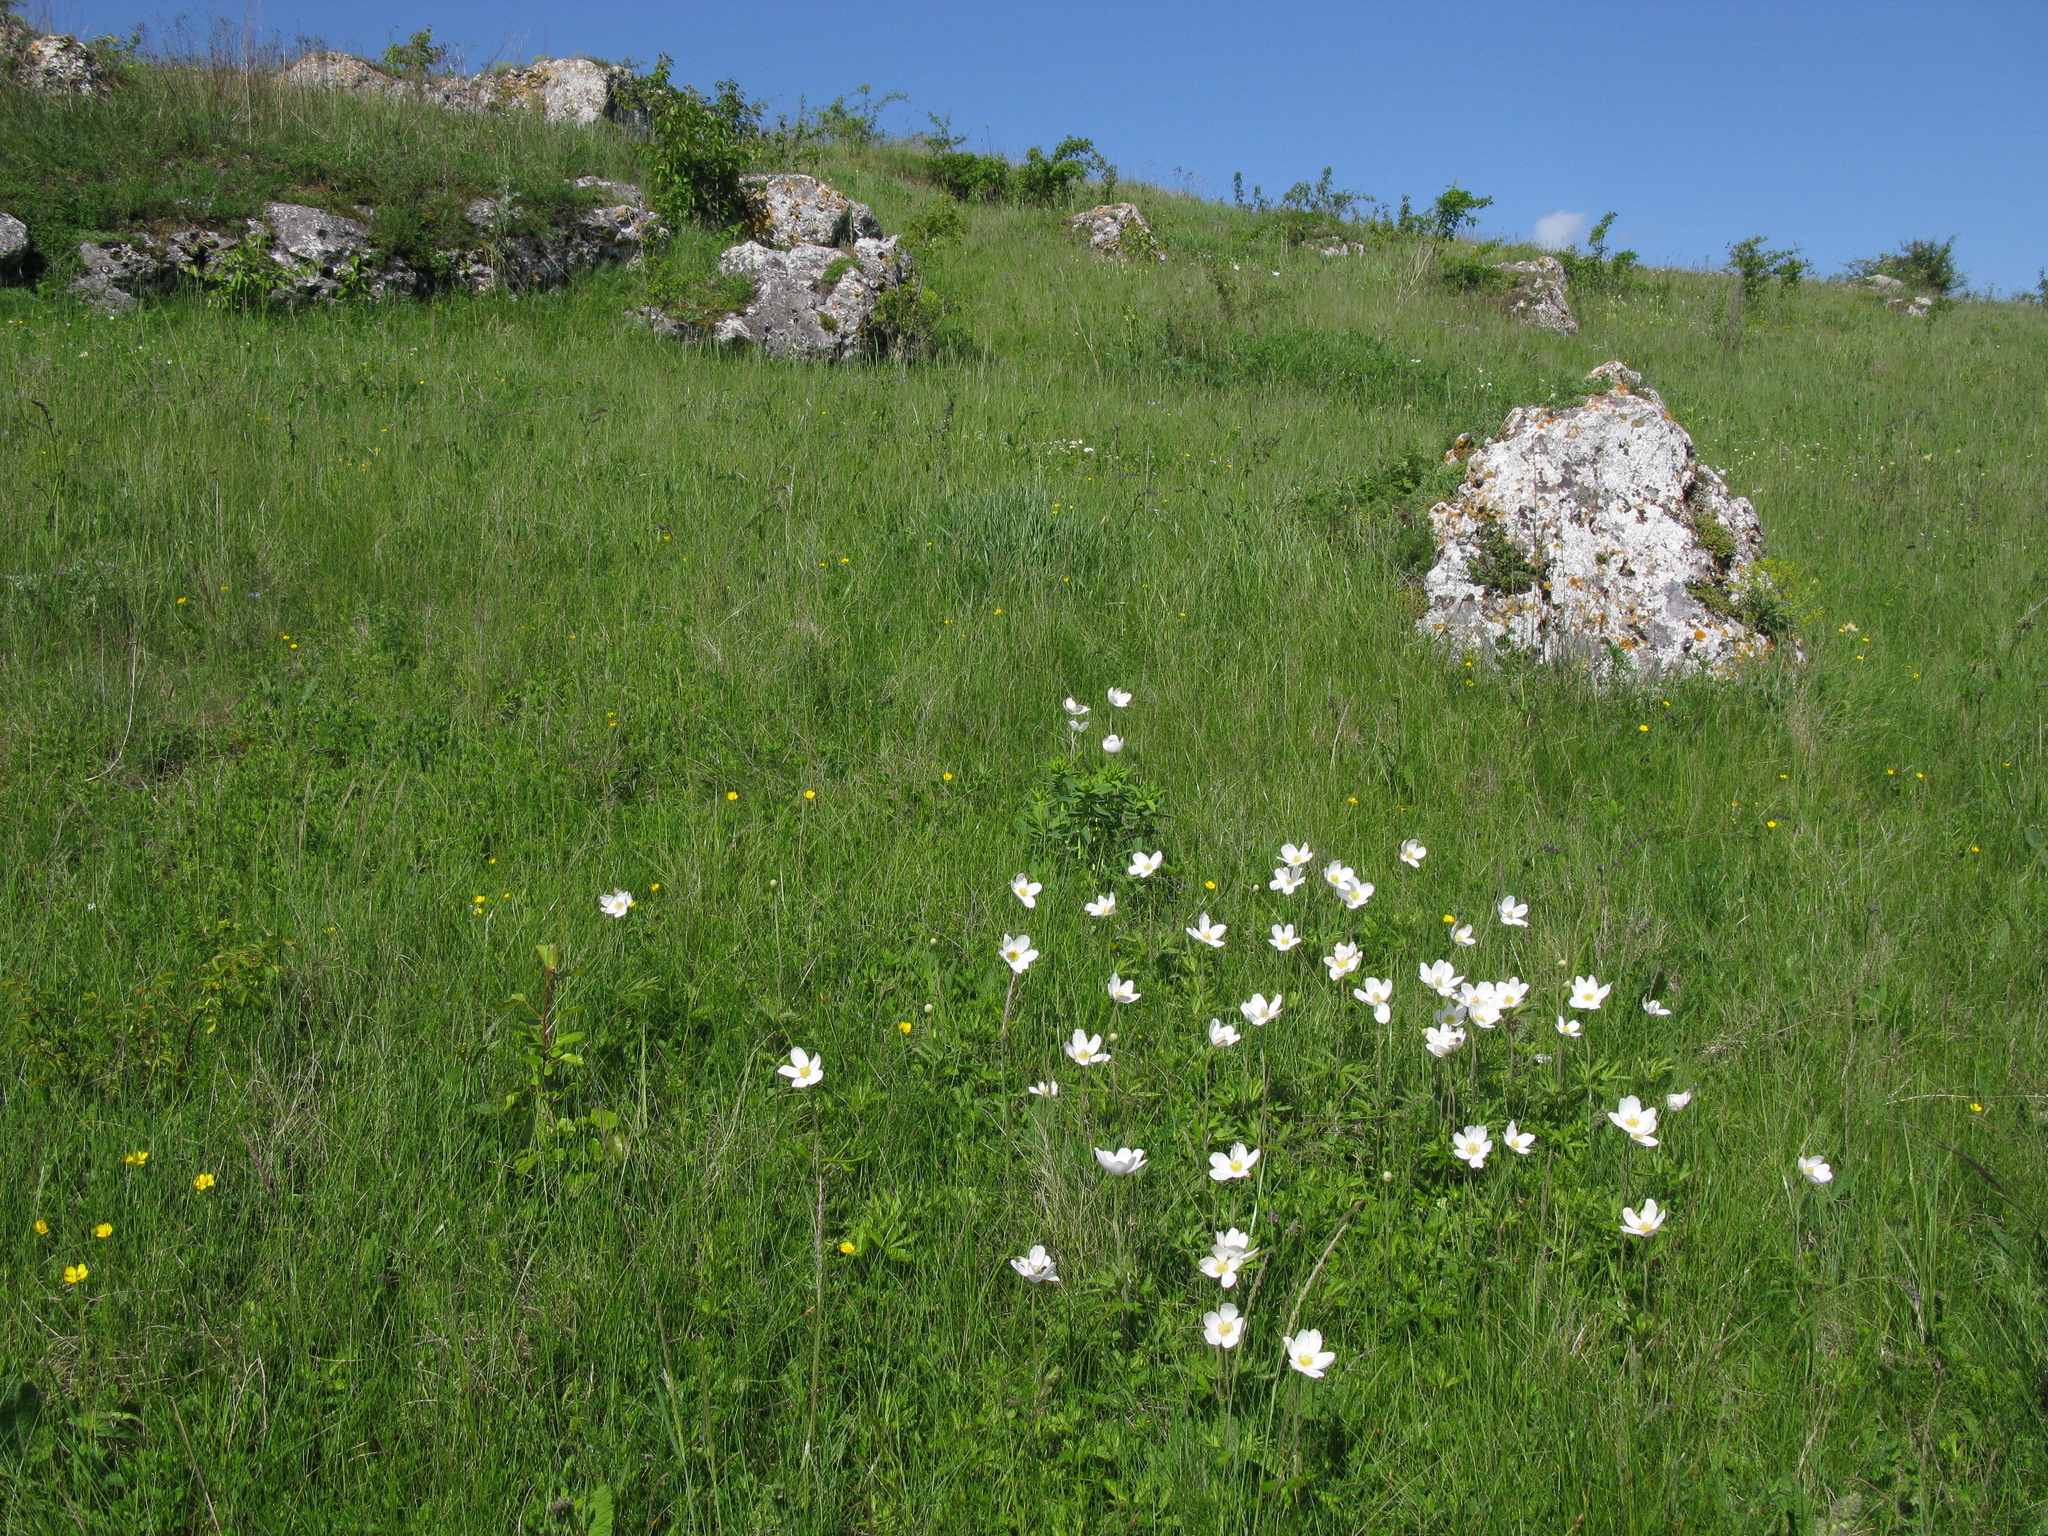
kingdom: Plantae
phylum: Tracheophyta
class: Magnoliopsida
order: Ranunculales
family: Ranunculaceae
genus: Anemone
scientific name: Anemone sylvestris
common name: Snowdrop anemone
